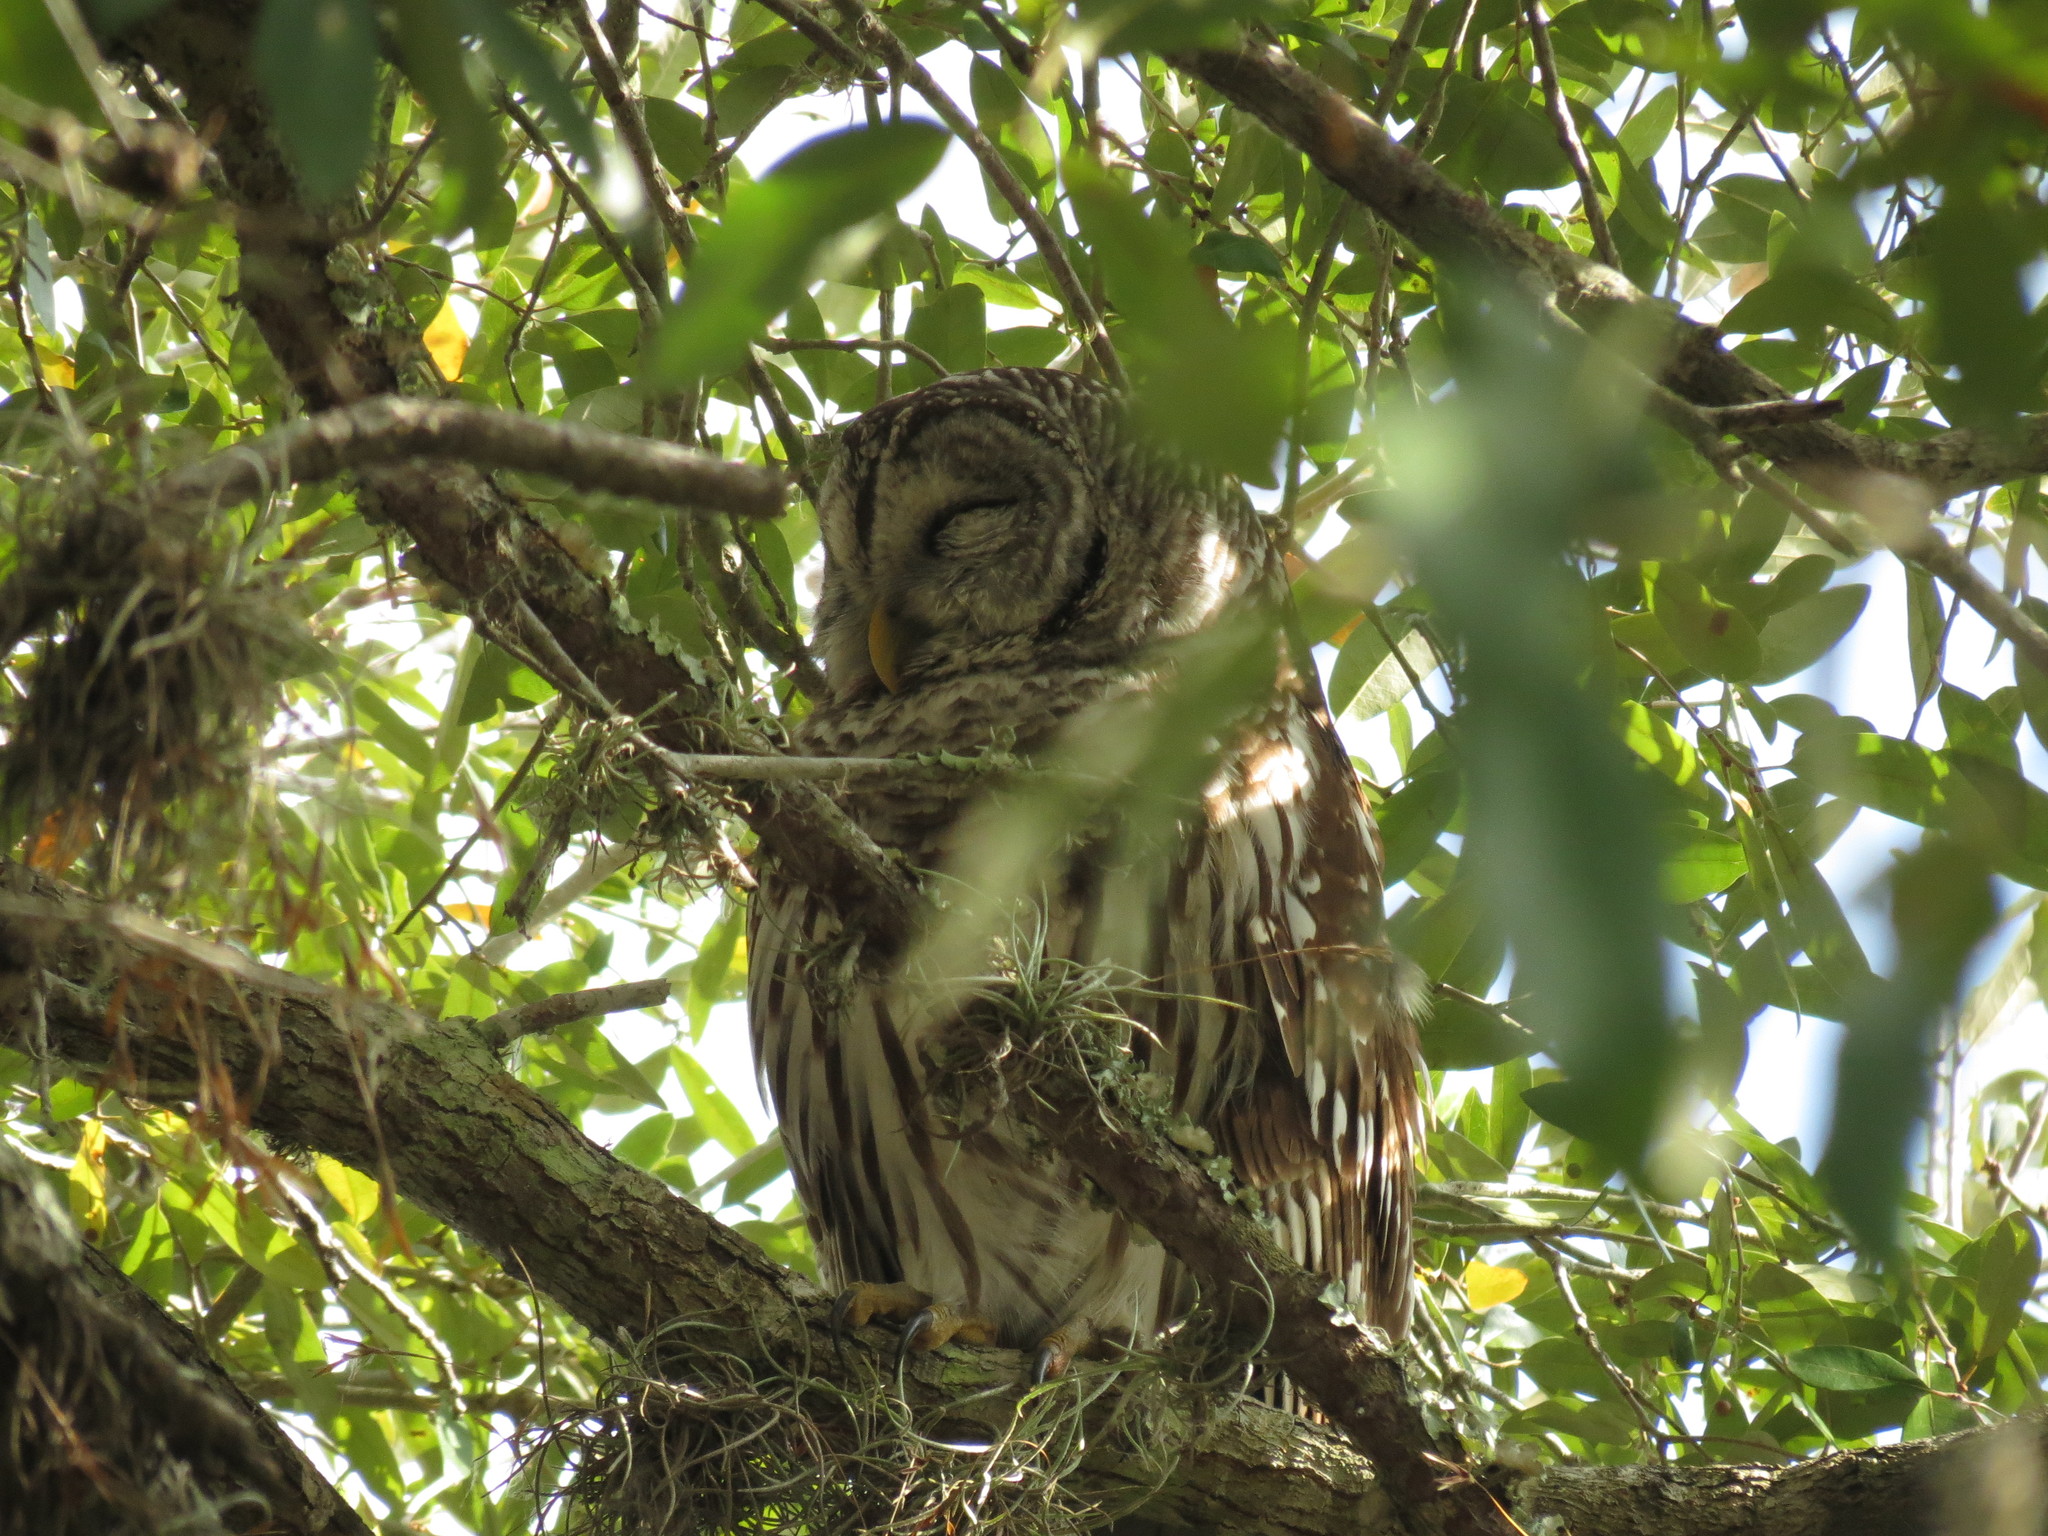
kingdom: Animalia
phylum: Chordata
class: Aves
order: Strigiformes
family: Strigidae
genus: Strix
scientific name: Strix varia
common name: Barred owl
